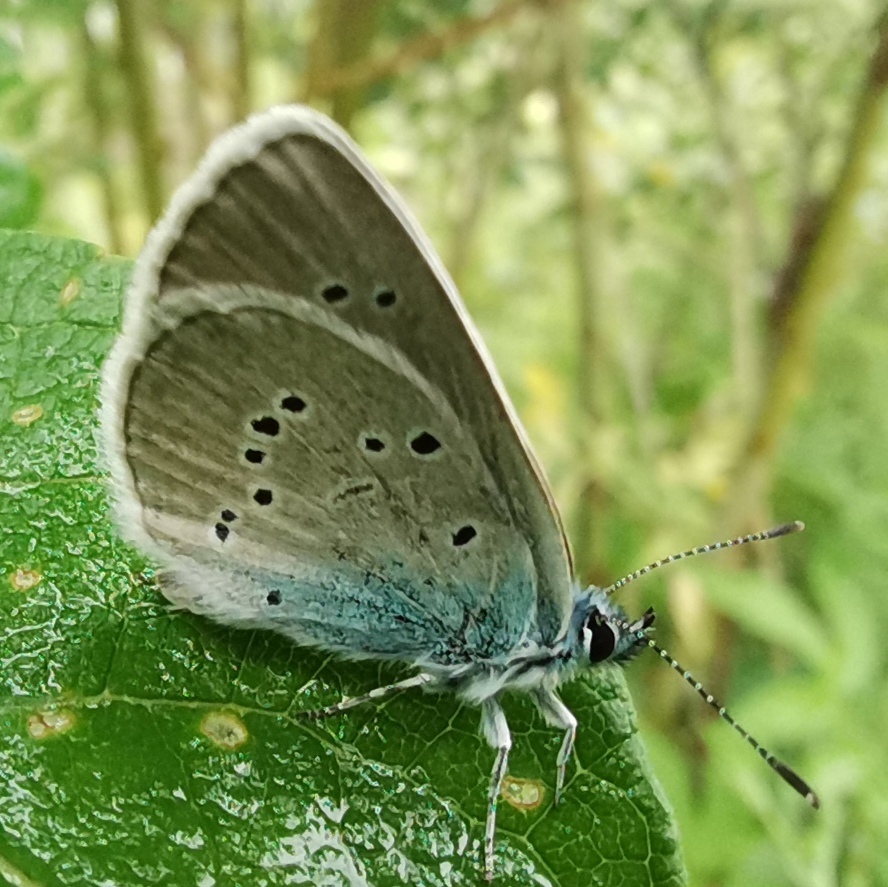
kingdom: Animalia
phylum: Arthropoda
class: Insecta
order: Lepidoptera
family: Lycaenidae
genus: Cyaniris
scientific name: Cyaniris semiargus
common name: Mazarine blue
